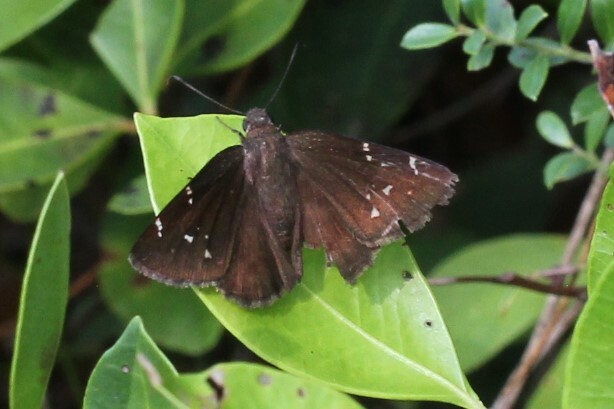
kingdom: Animalia
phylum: Arthropoda
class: Insecta
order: Lepidoptera
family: Hesperiidae
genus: Thorybes
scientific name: Thorybes pylades
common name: Northern cloudywing
